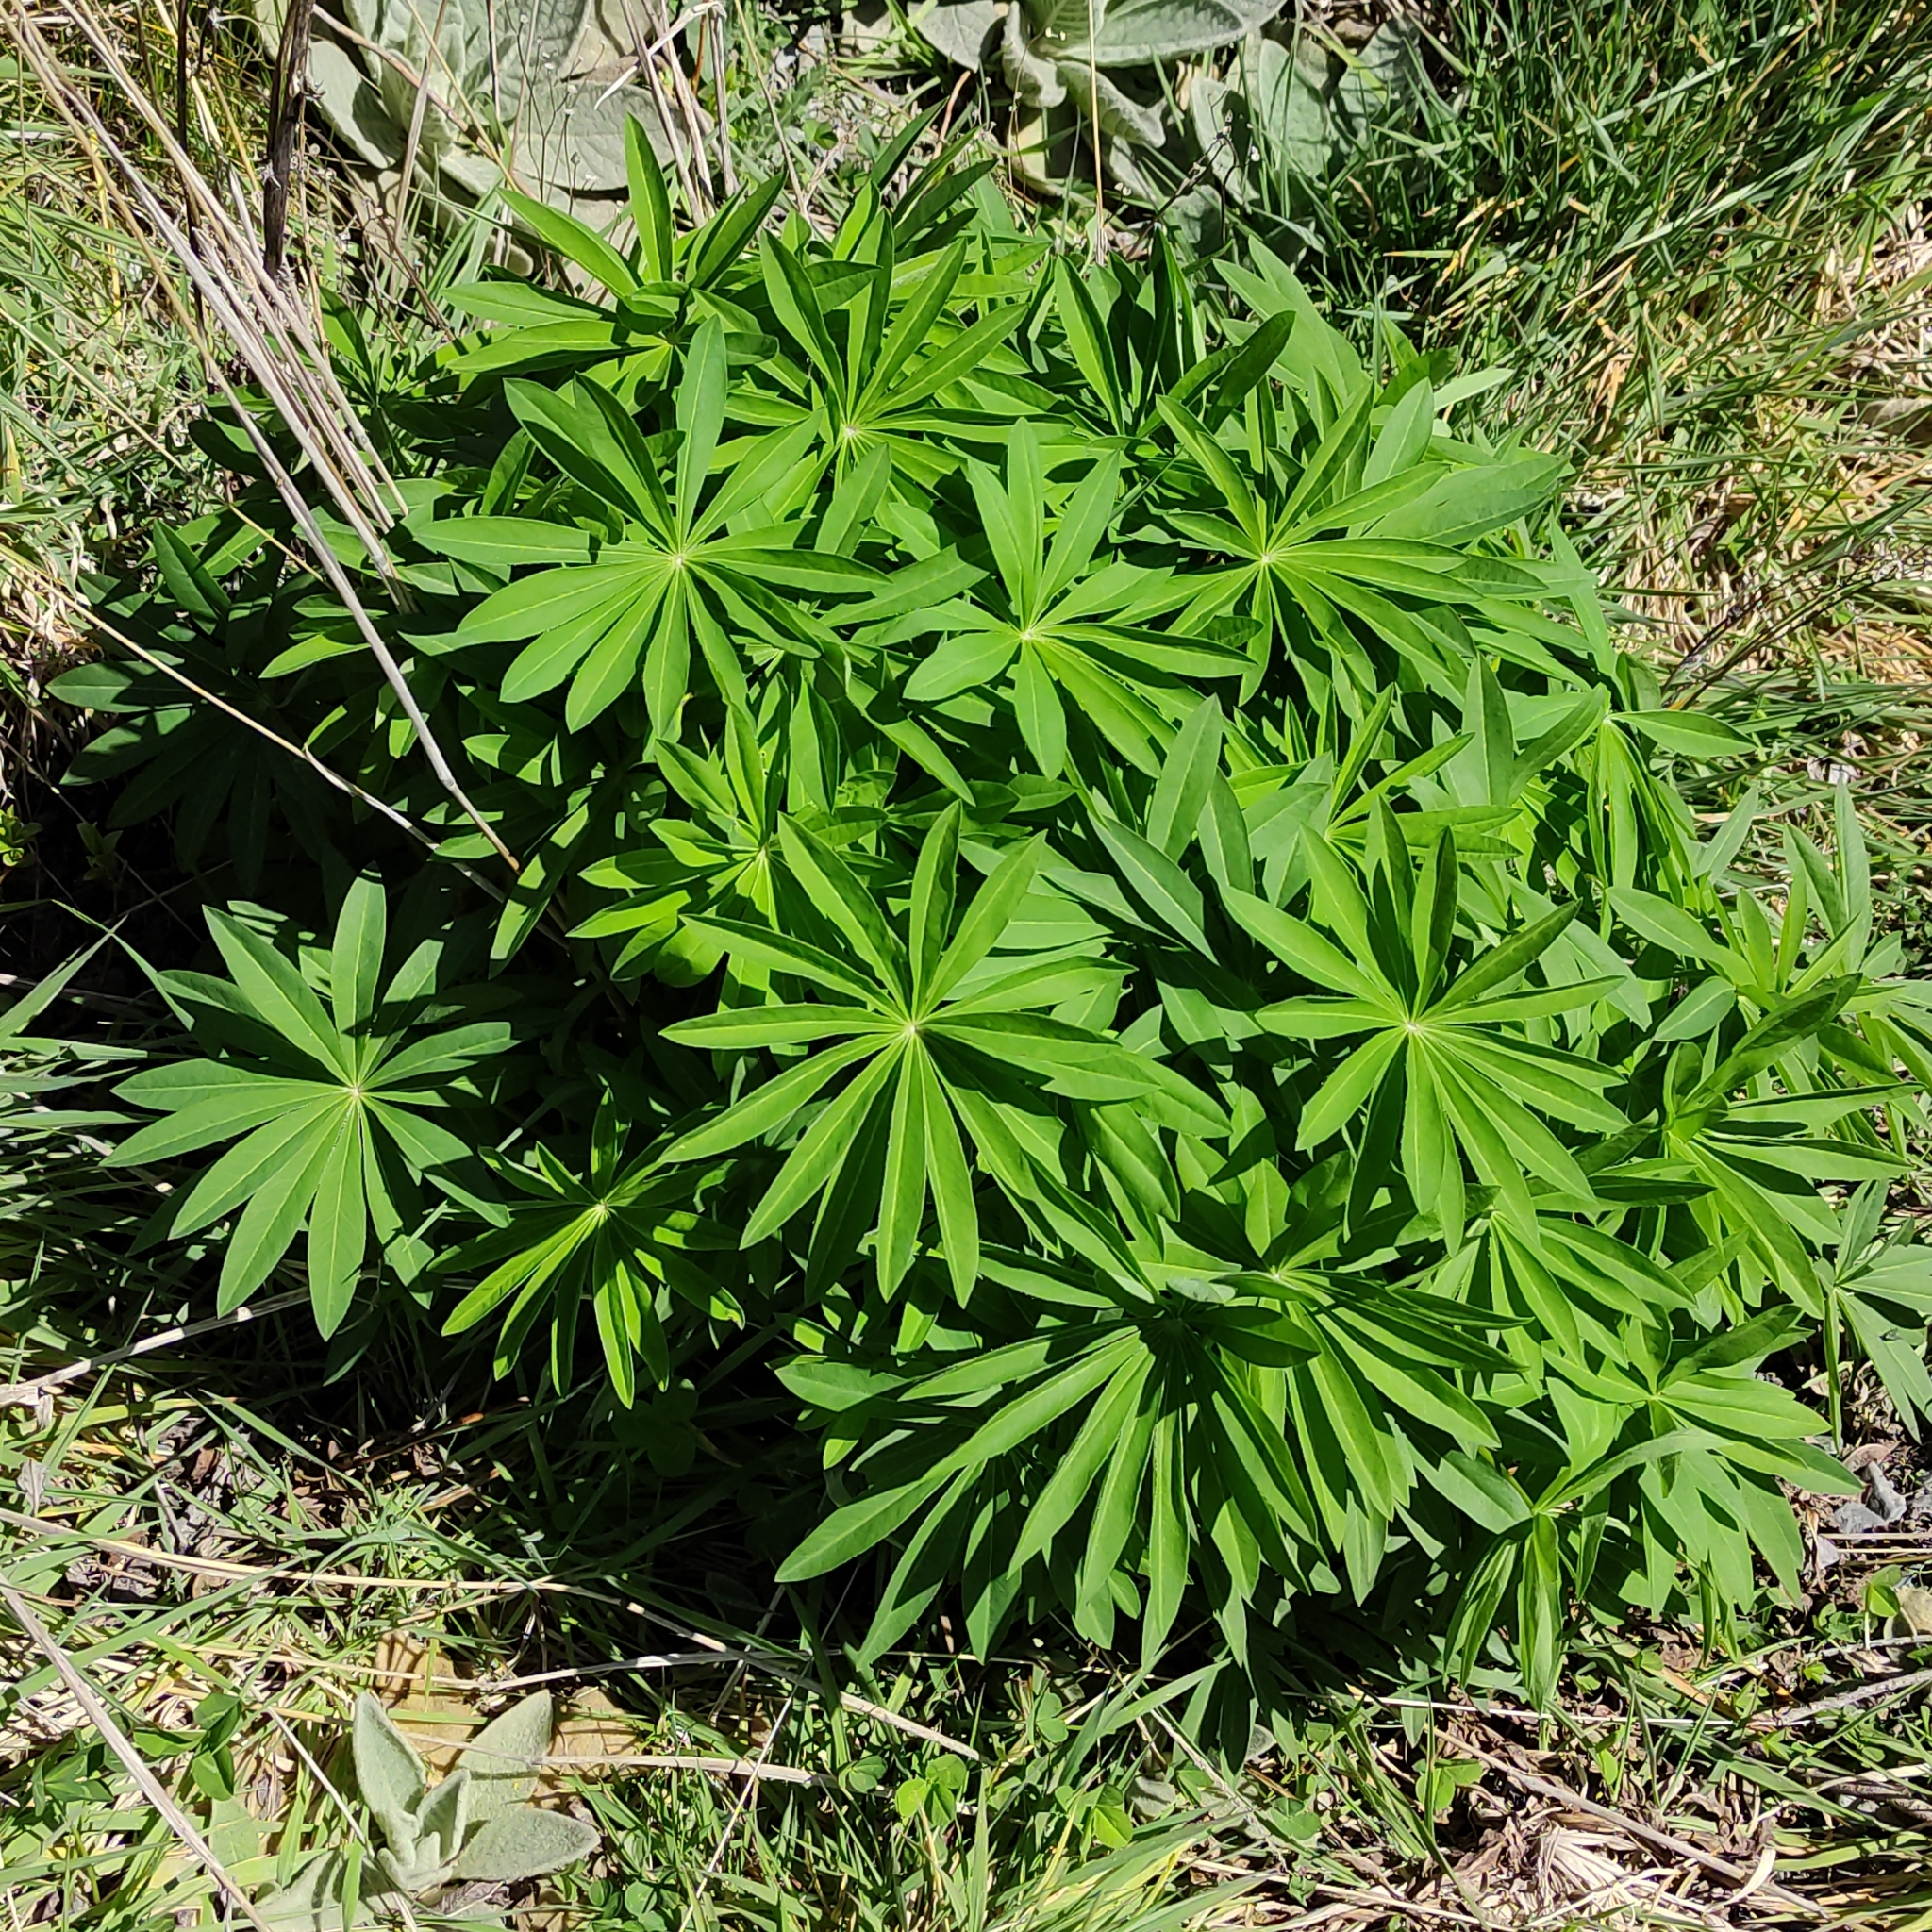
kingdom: Plantae
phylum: Tracheophyta
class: Magnoliopsida
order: Fabales
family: Fabaceae
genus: Lupinus
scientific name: Lupinus polyphyllus
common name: Garden lupin
